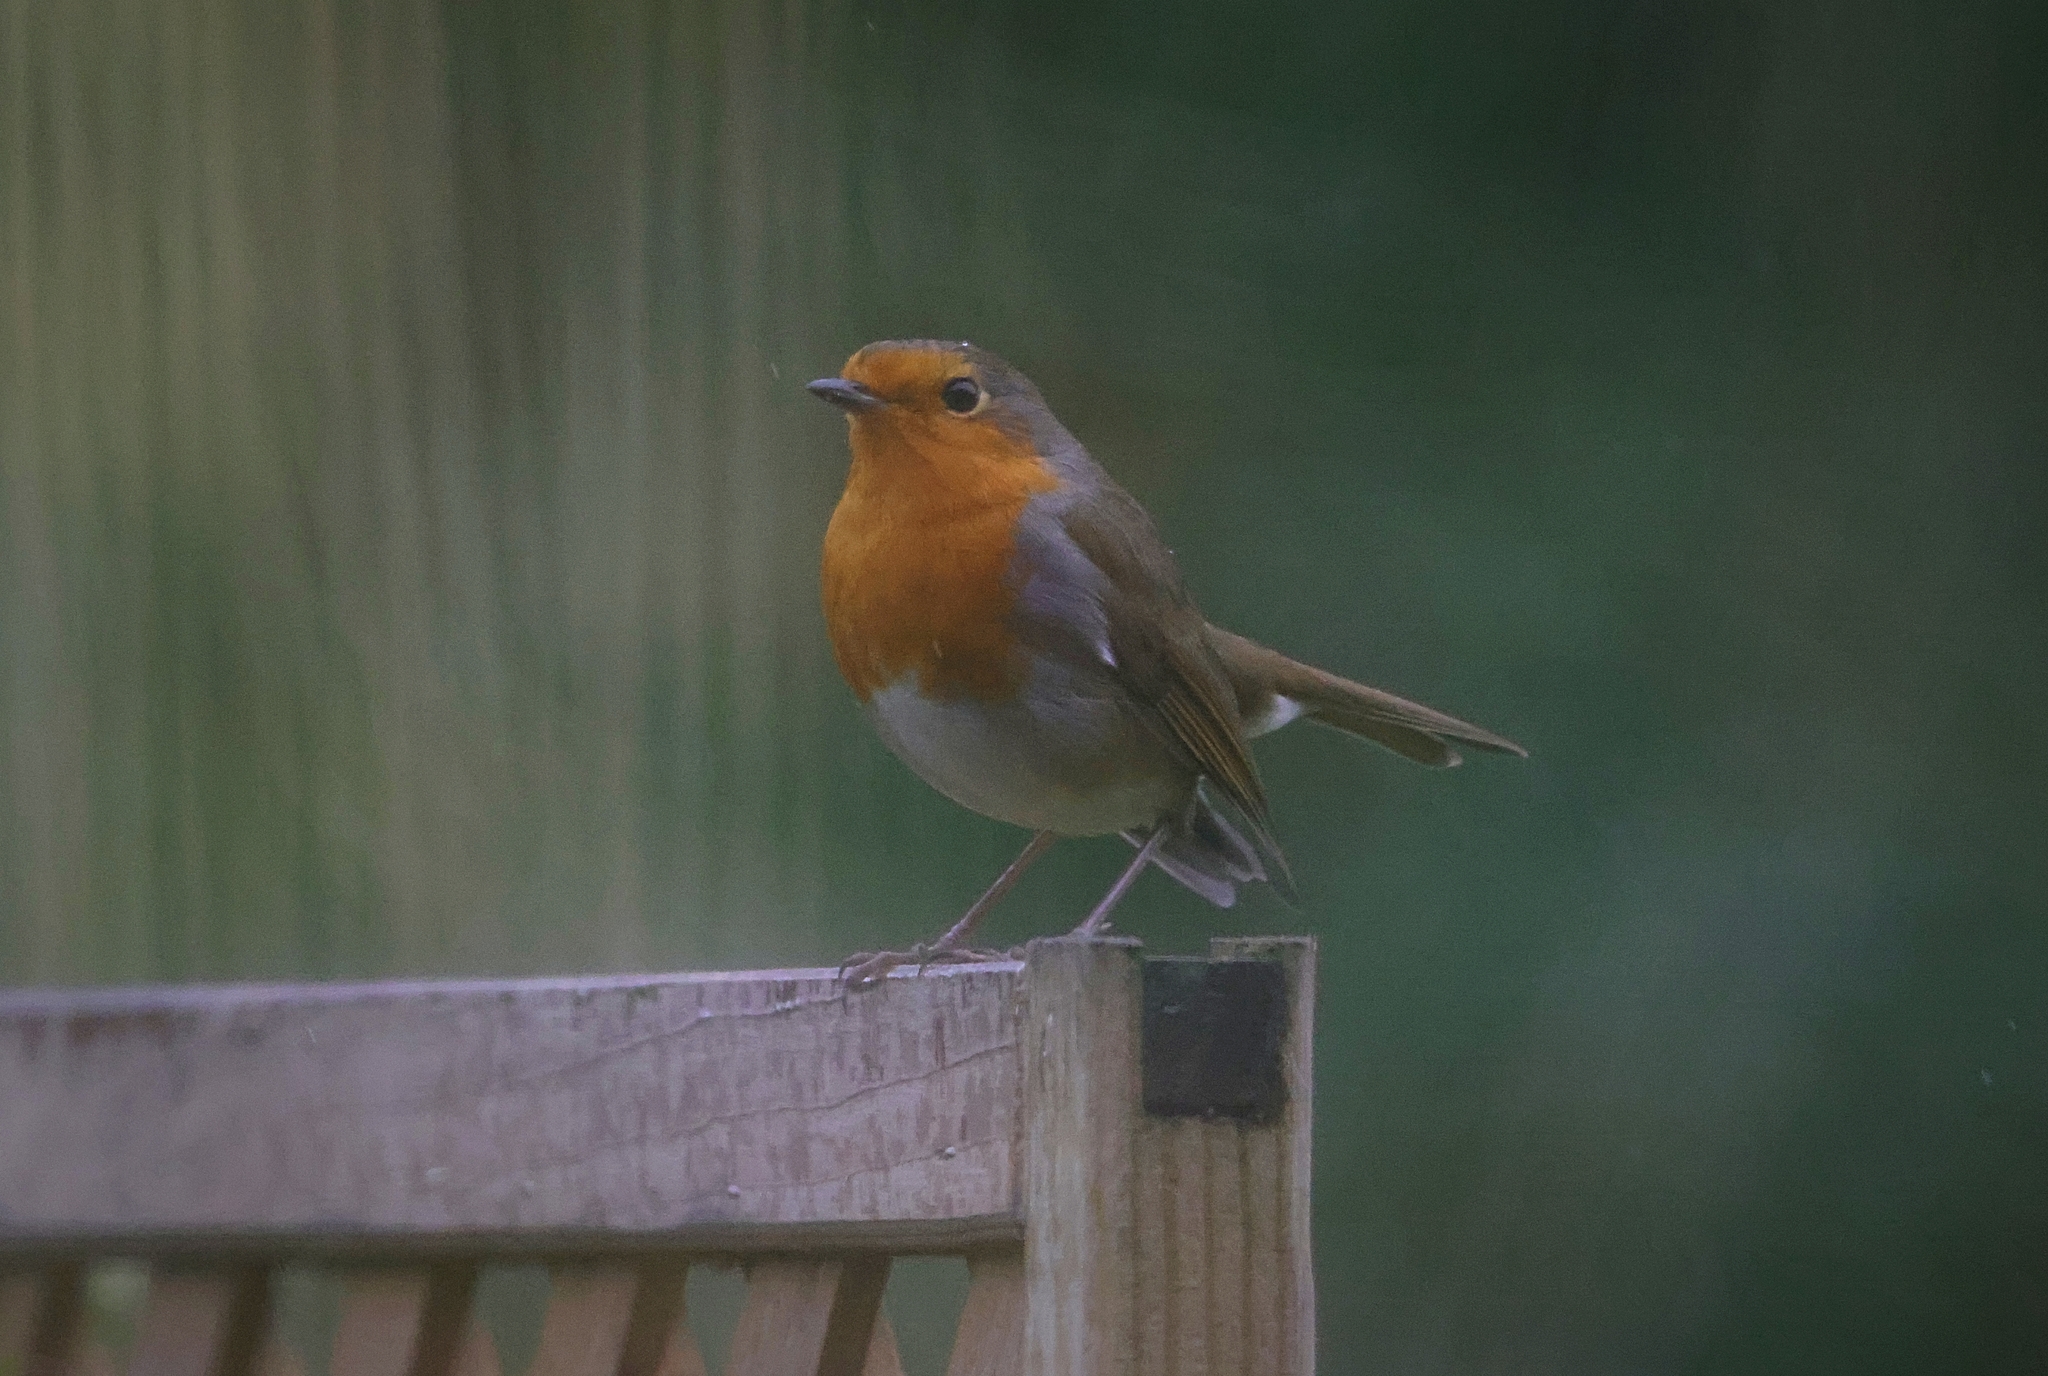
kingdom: Animalia
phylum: Chordata
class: Aves
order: Passeriformes
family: Muscicapidae
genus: Erithacus
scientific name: Erithacus rubecula
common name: European robin
